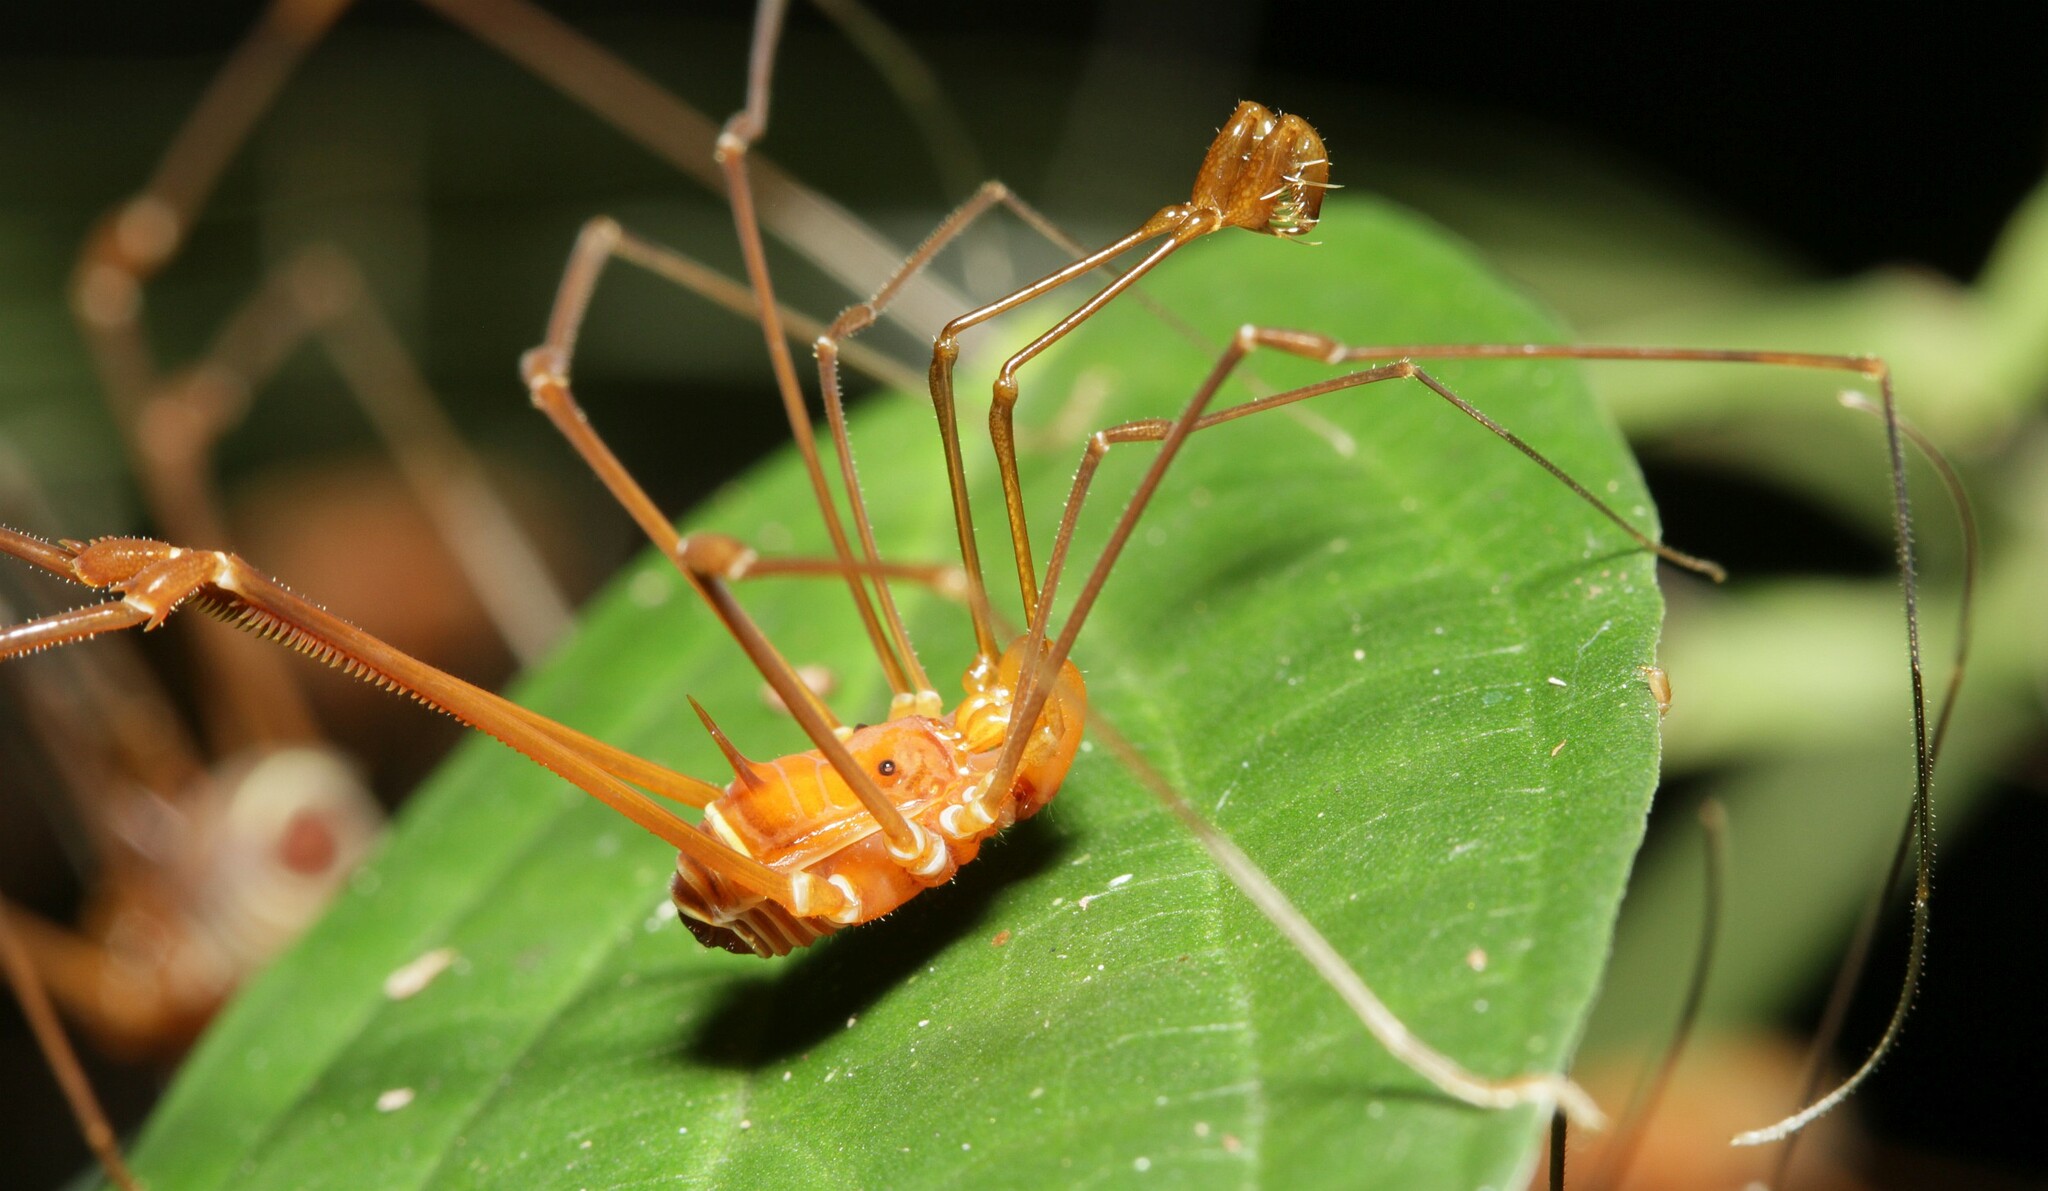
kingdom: Animalia
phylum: Arthropoda
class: Arachnida
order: Opiliones
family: Stygnidae
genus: Obidosus
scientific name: Obidosus boibumba
